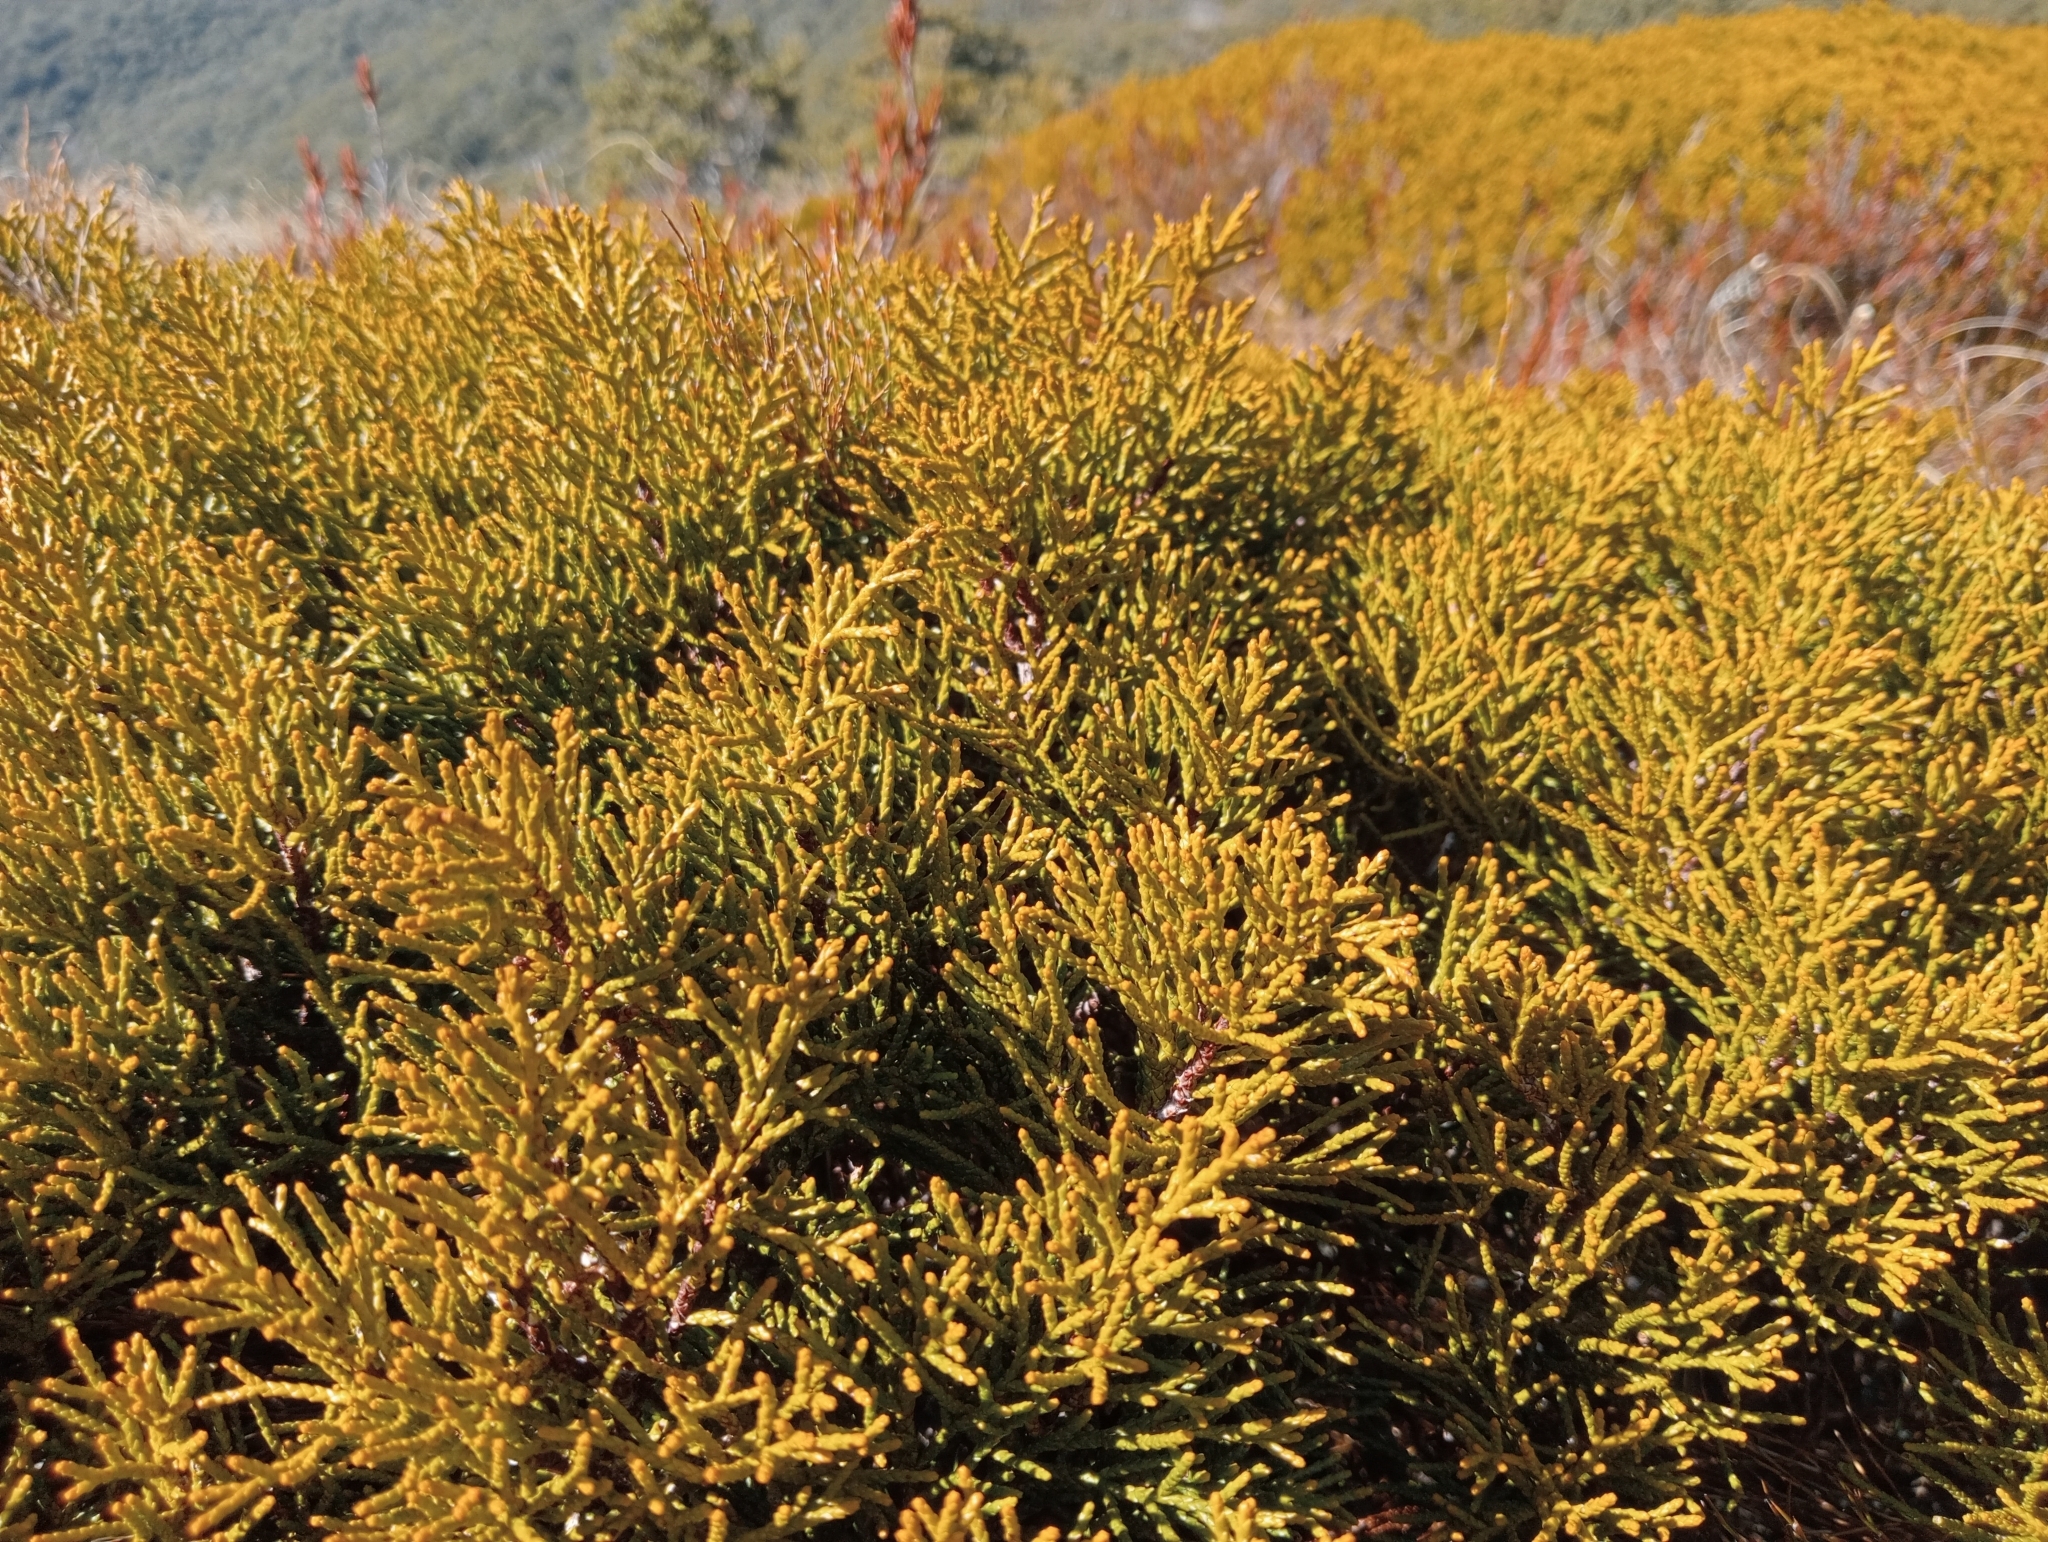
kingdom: Plantae
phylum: Tracheophyta
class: Pinopsida
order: Pinales
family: Podocarpaceae
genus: Halocarpus
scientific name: Halocarpus bidwillii
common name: Bog pine
